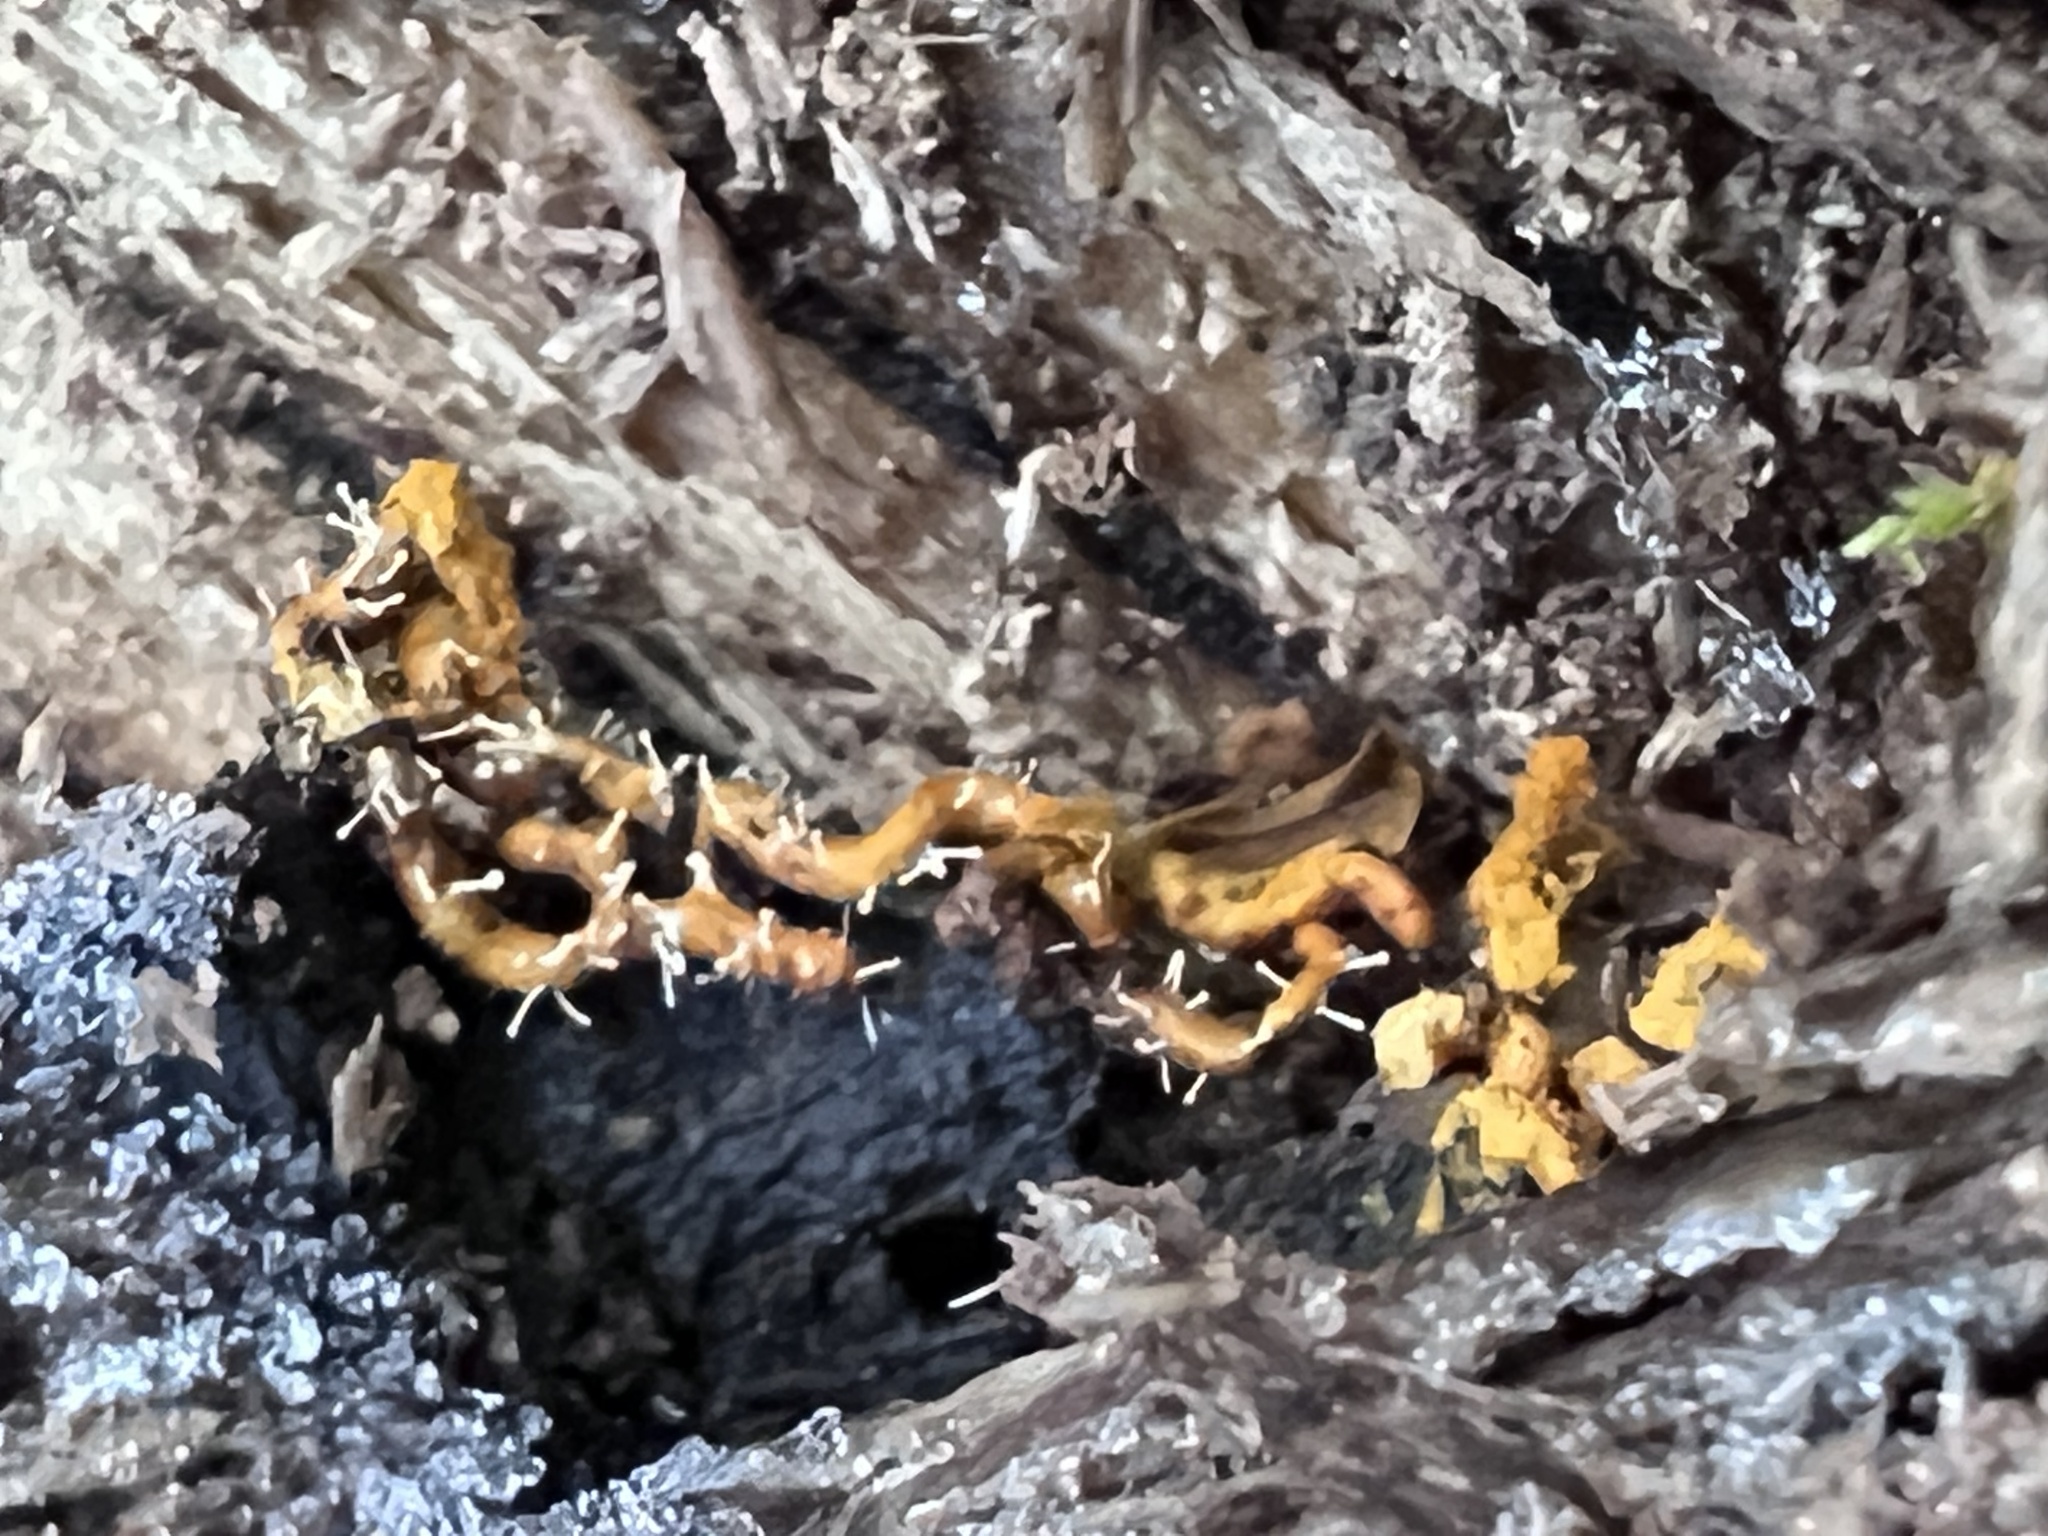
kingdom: Protozoa
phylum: Mycetozoa
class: Myxomycetes
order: Trichiales
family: Arcyriaceae
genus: Hemitrichia
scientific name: Hemitrichia serpula
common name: Pretzel slime mold
